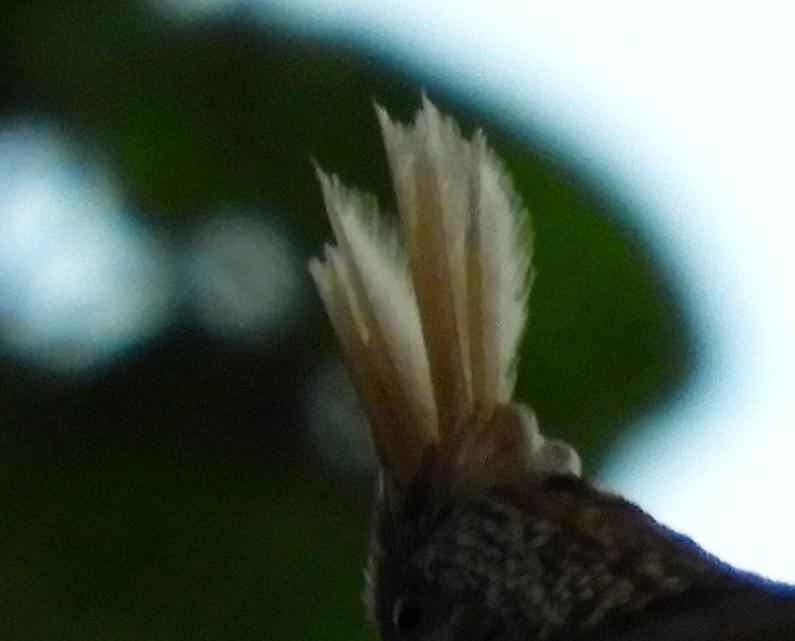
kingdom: Animalia
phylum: Chordata
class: Aves
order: Galliformes
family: Odontophoridae
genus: Callipepla
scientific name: Callipepla douglasii
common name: Elegant quail
